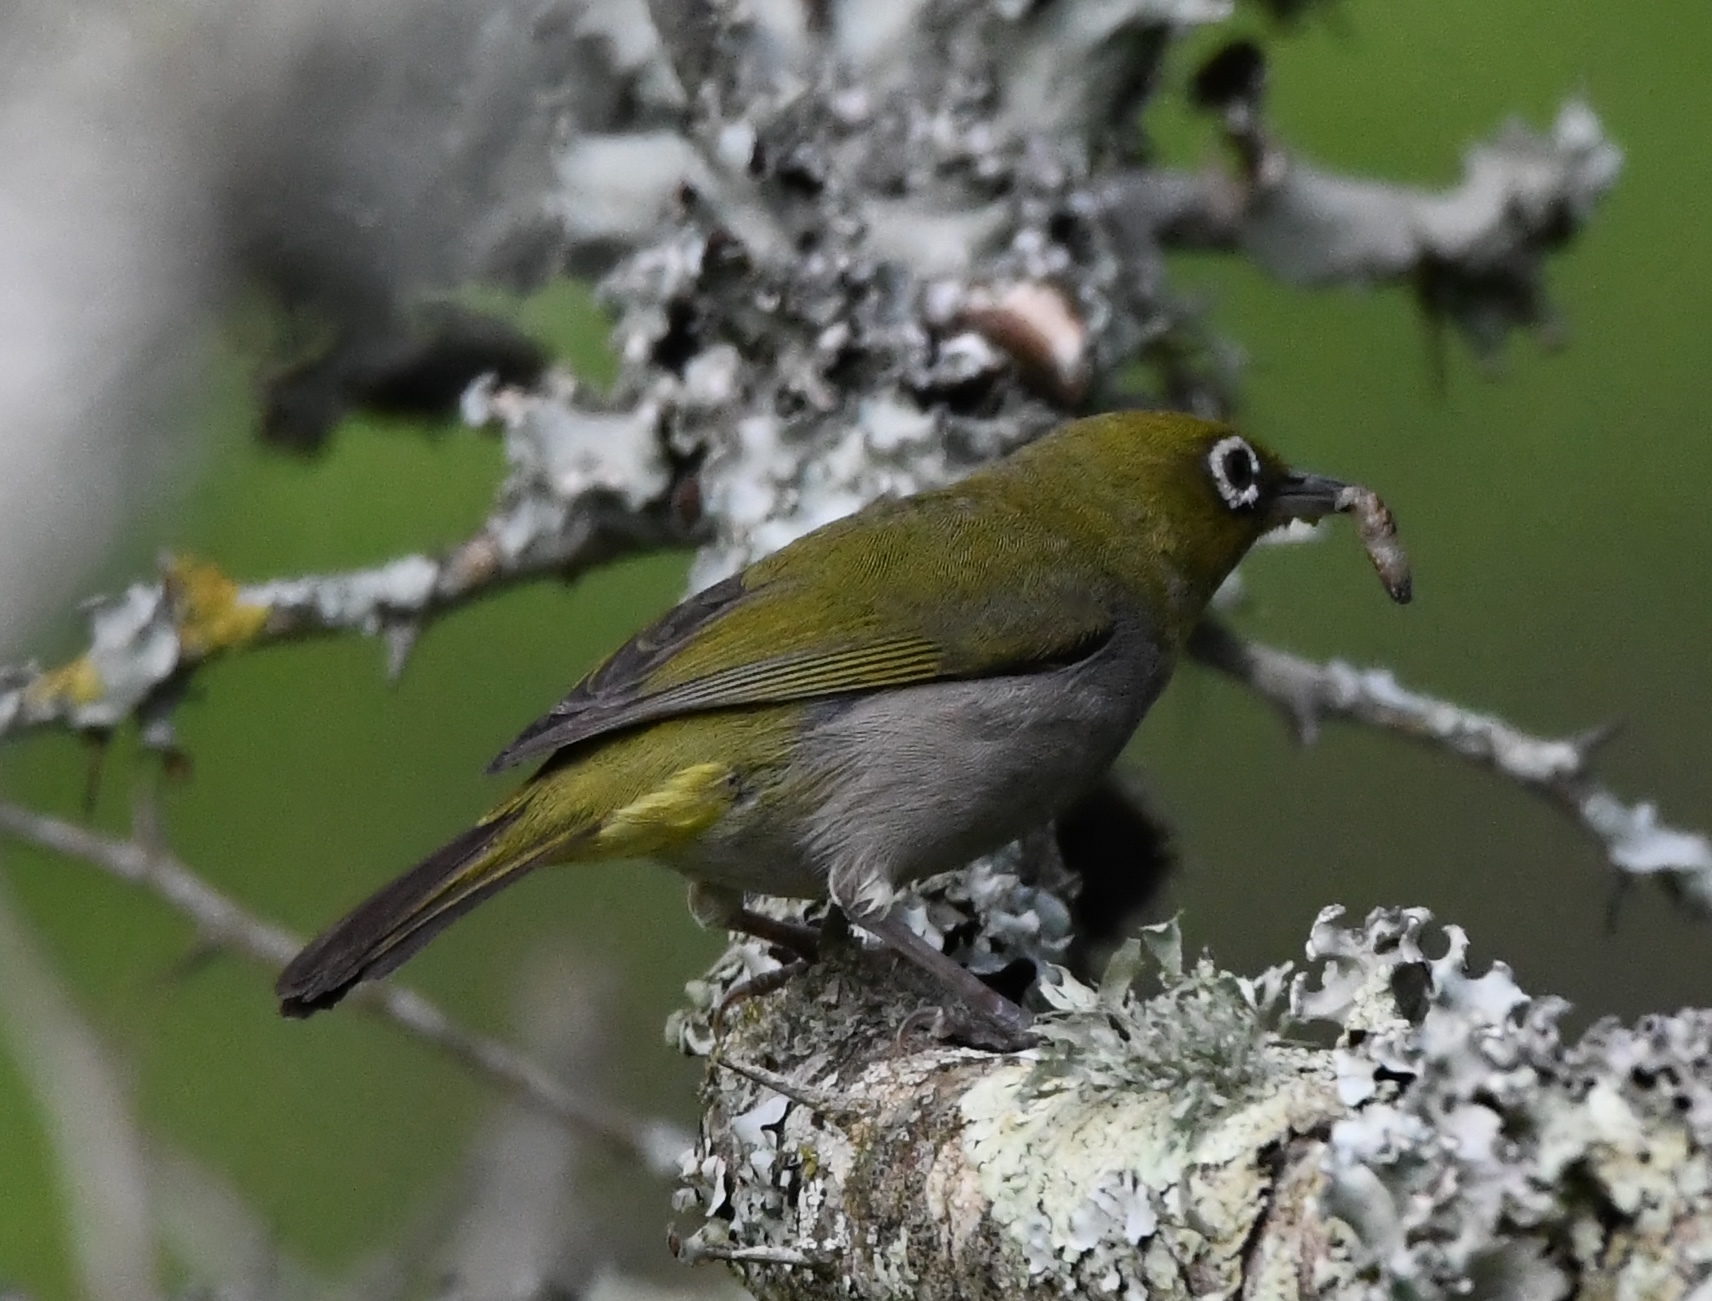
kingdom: Animalia
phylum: Chordata
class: Aves
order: Passeriformes
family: Zosteropidae
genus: Zosterops
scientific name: Zosterops virens
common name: Cape white-eye
